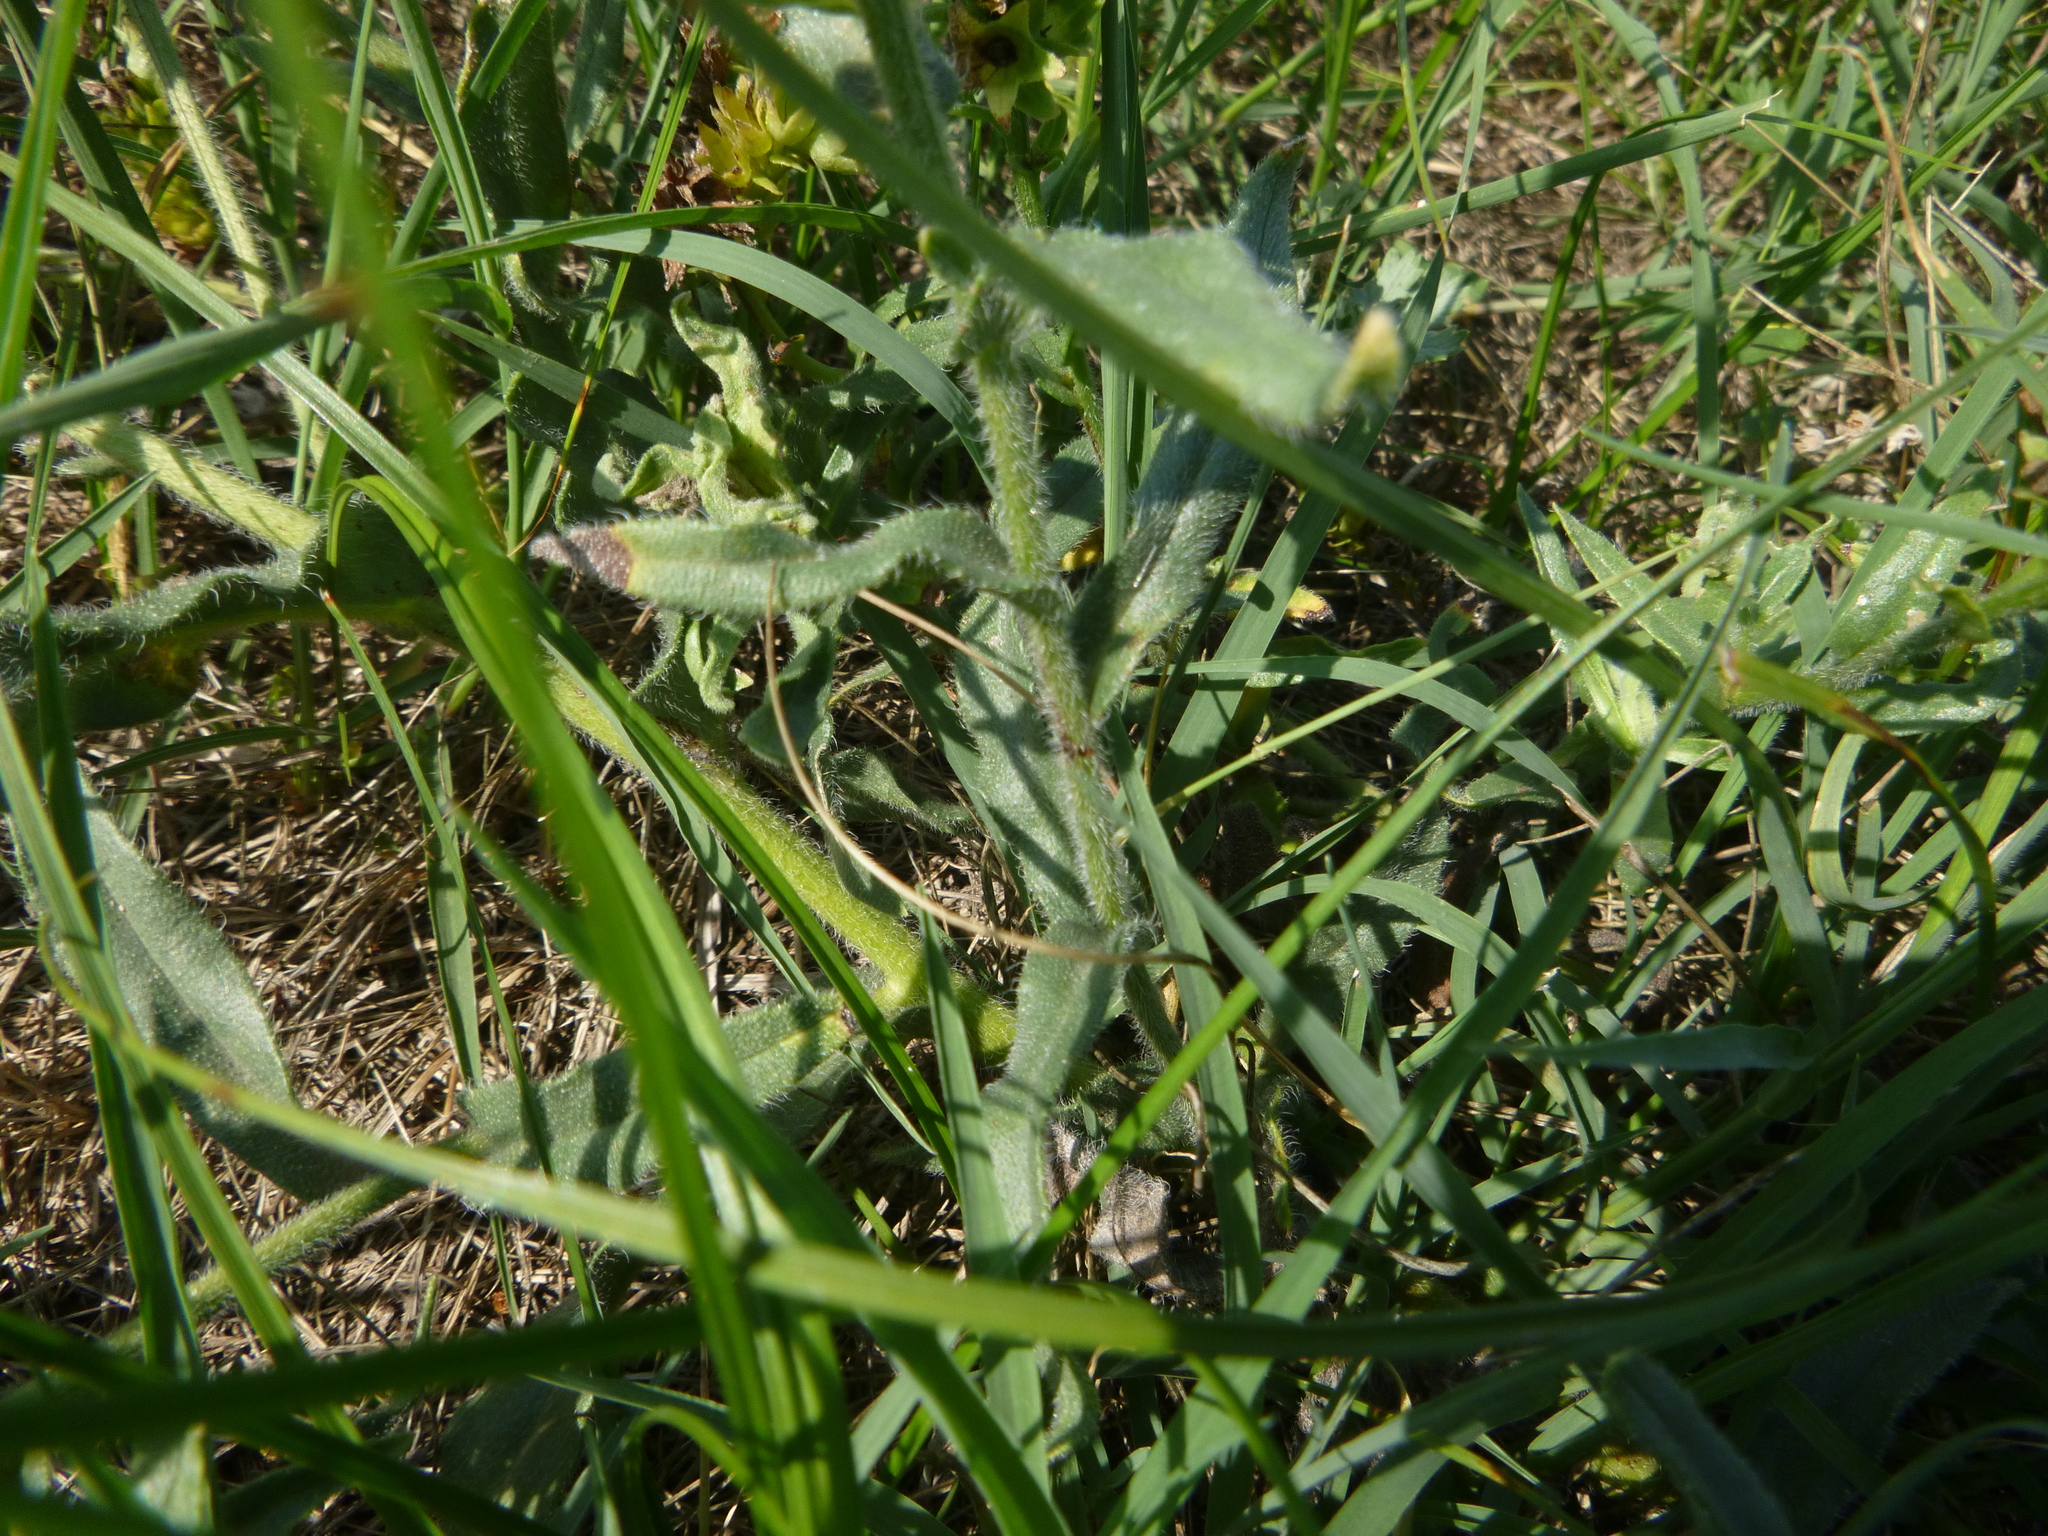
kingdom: Plantae
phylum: Tracheophyta
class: Magnoliopsida
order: Boraginales
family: Boraginaceae
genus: Anchusa
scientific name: Anchusa officinalis
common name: Alkanet
